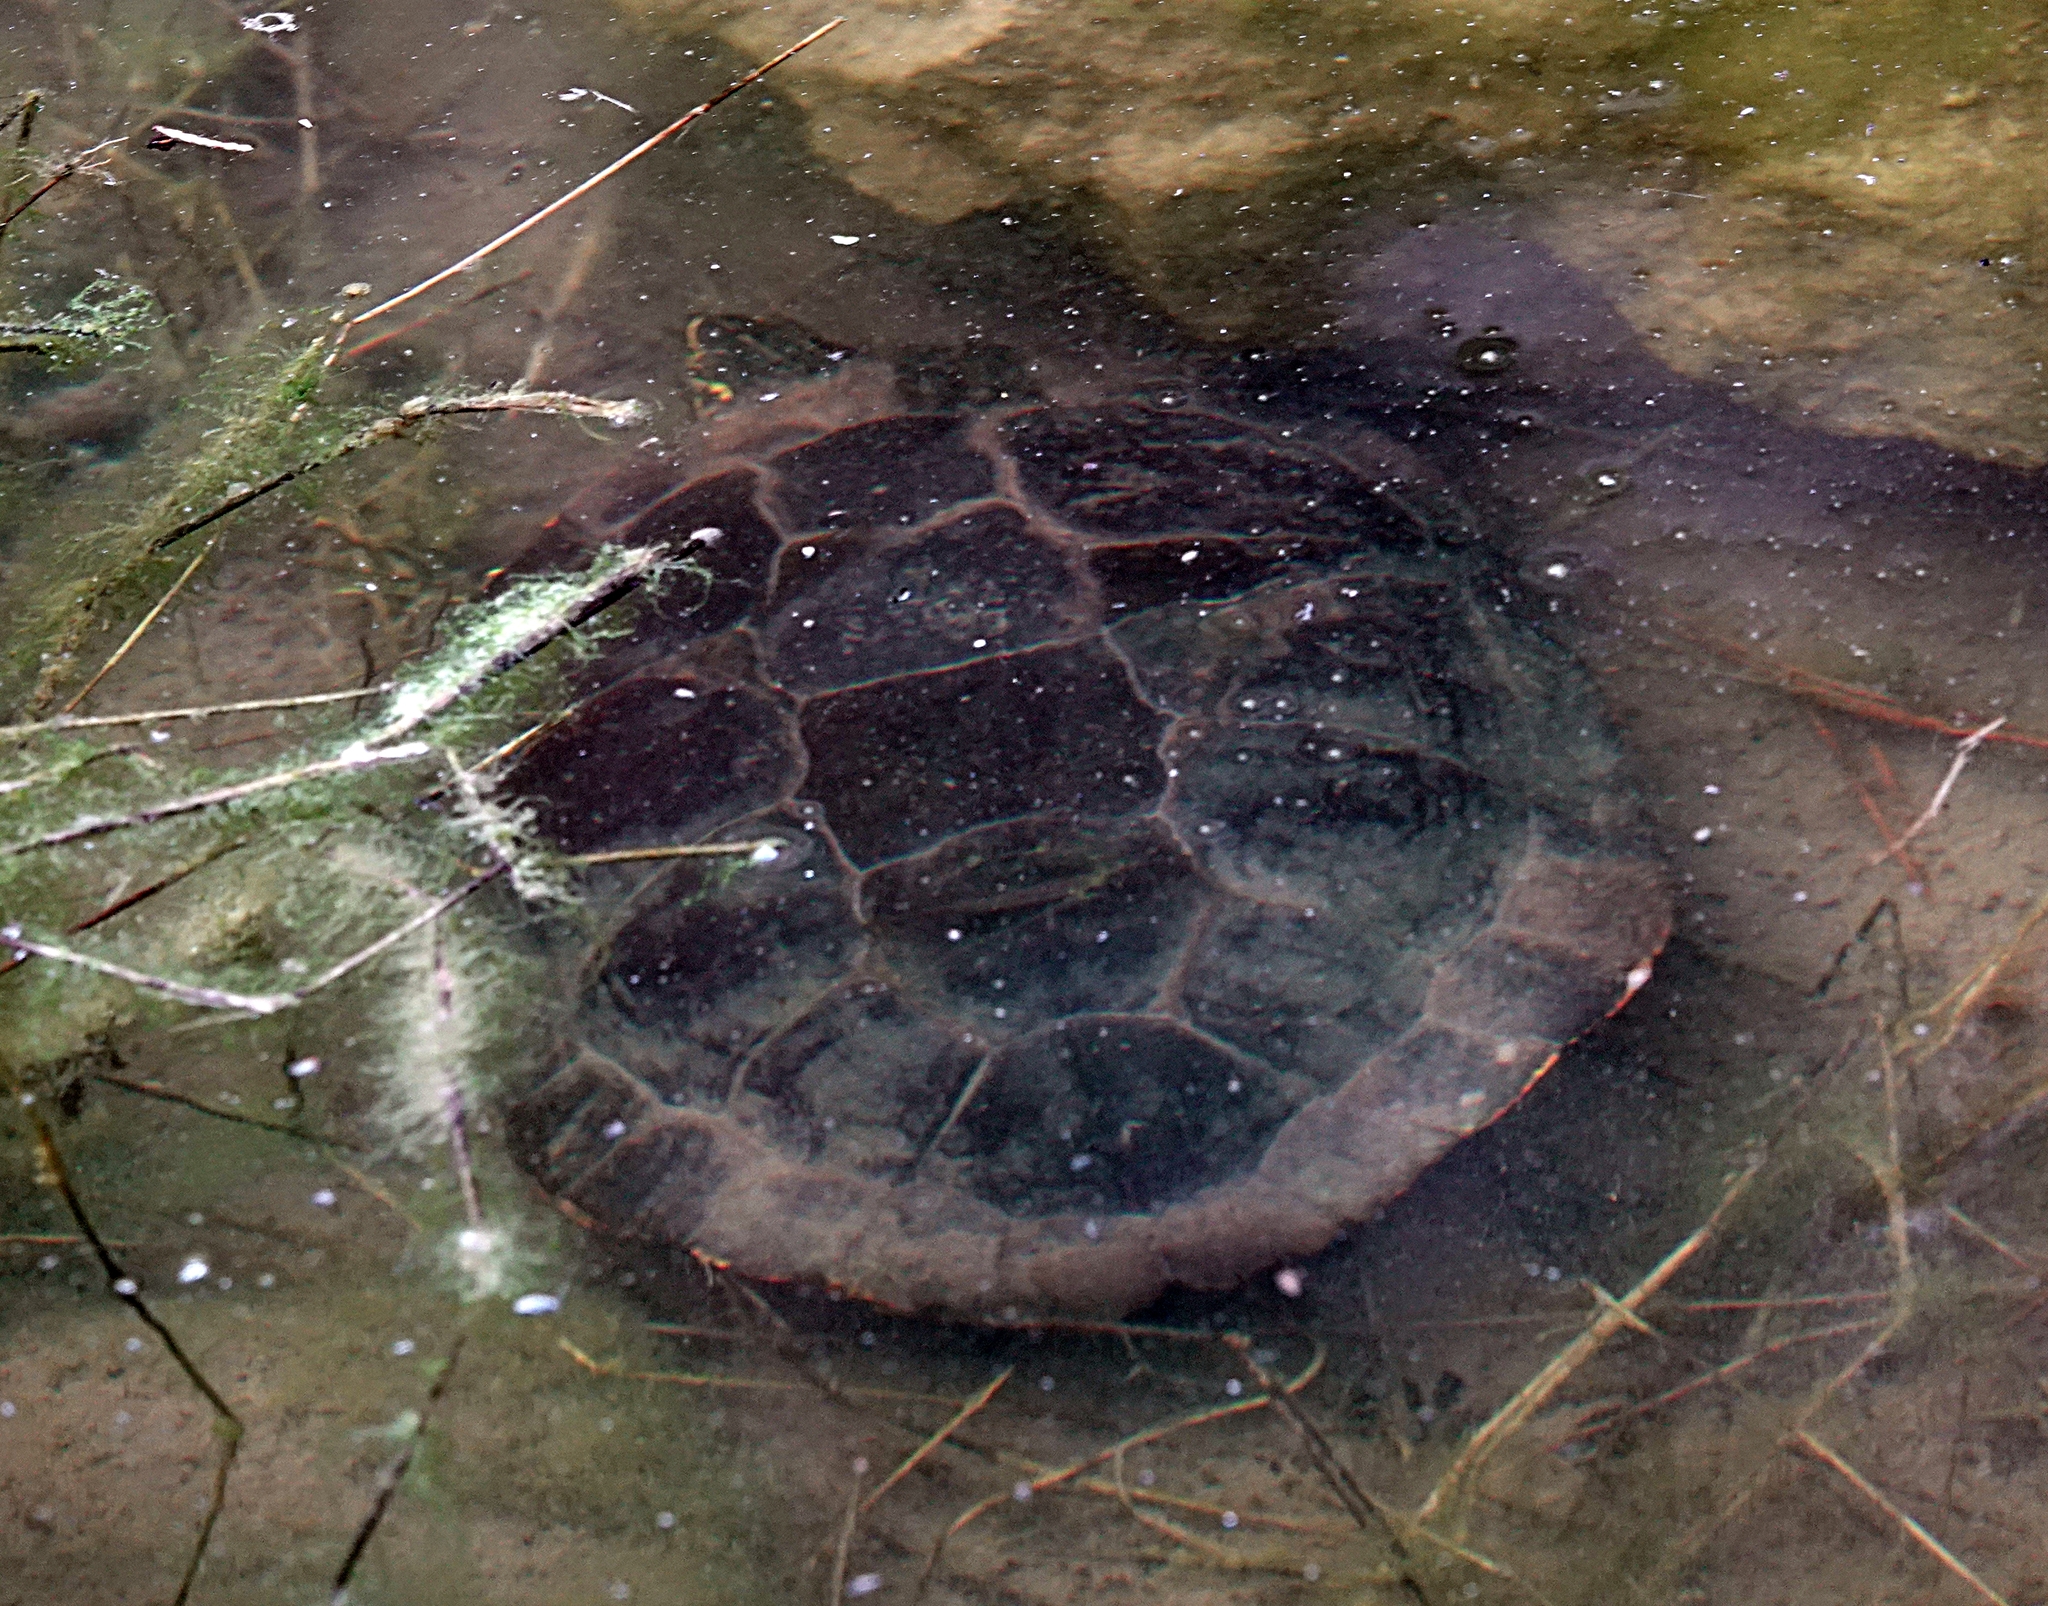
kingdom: Animalia
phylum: Chordata
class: Testudines
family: Emydidae
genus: Chrysemys
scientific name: Chrysemys picta
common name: Painted turtle
